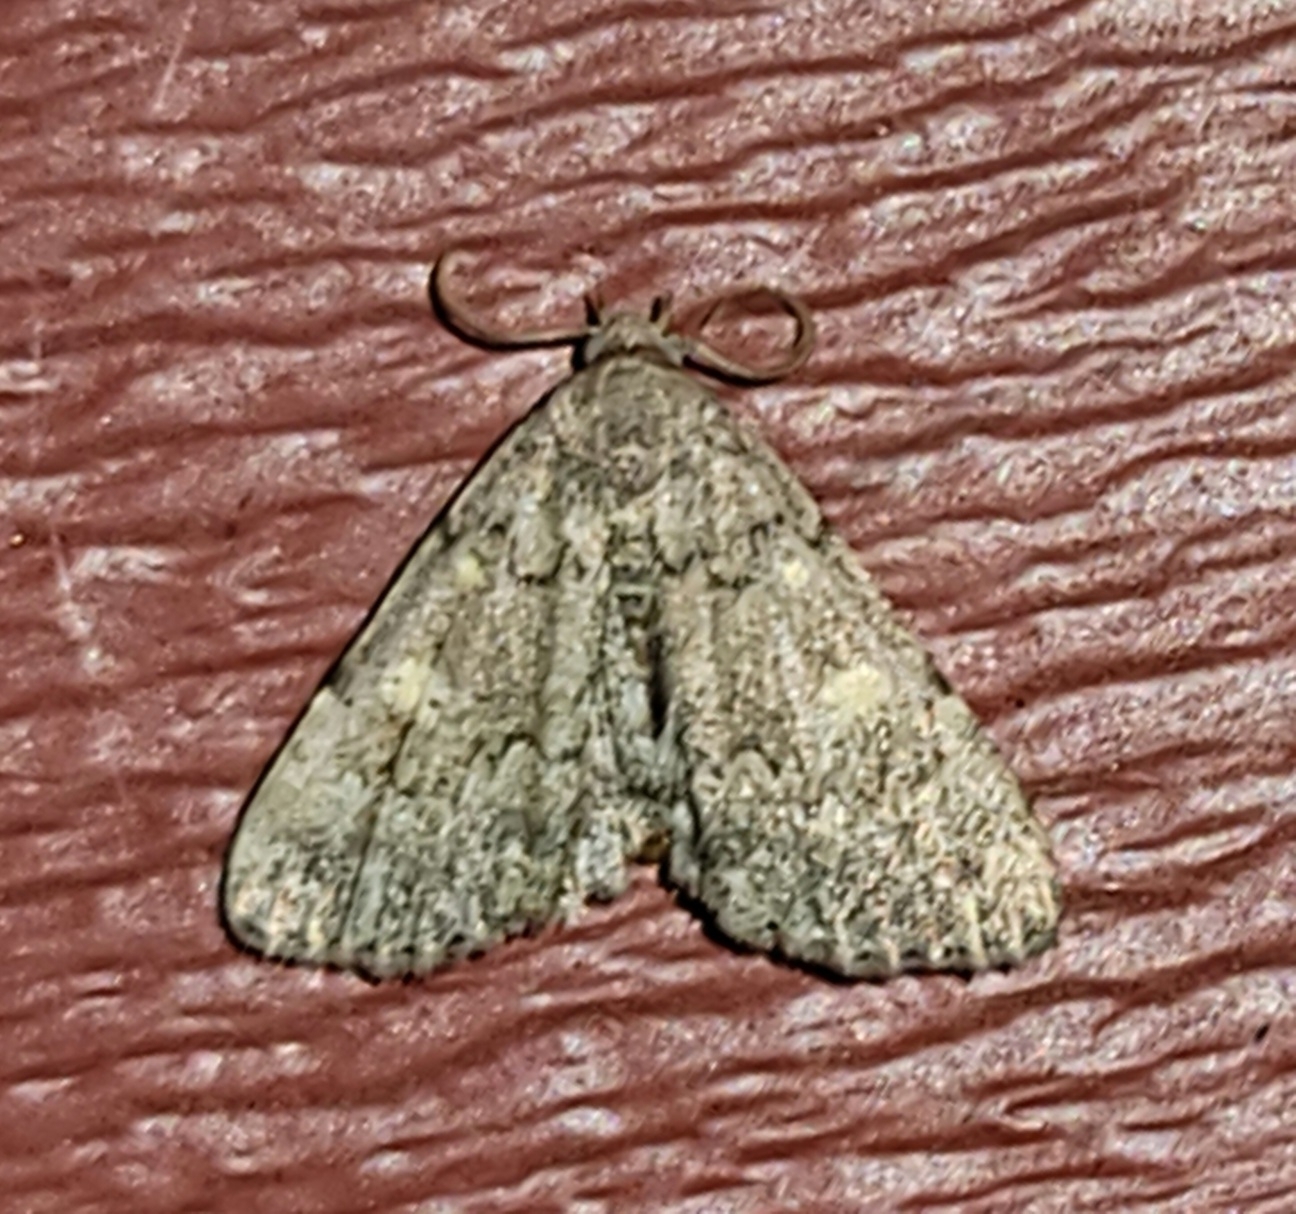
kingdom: Animalia
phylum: Arthropoda
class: Insecta
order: Lepidoptera
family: Erebidae
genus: Idia
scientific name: Idia aemula
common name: Common idia moth
